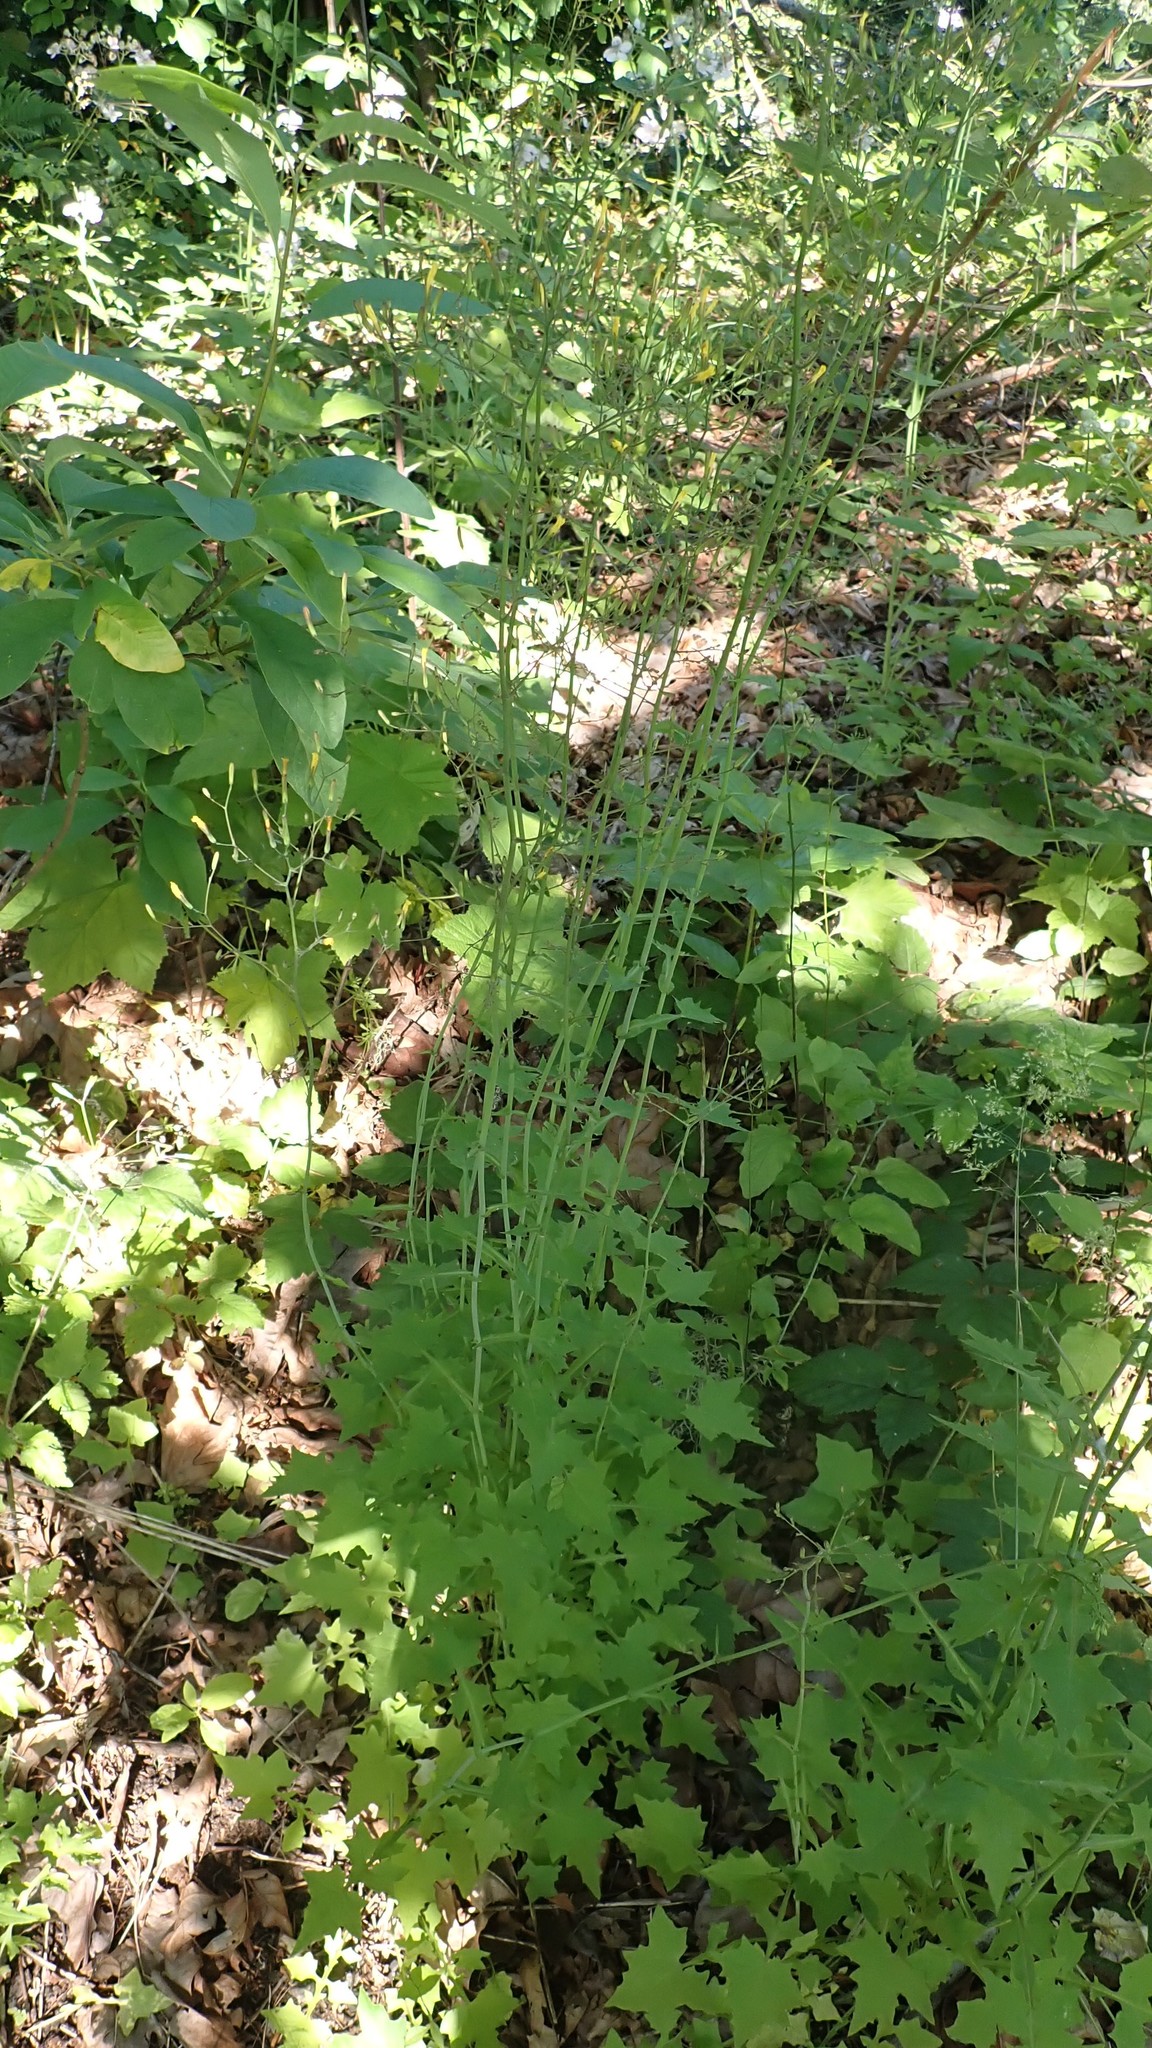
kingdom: Plantae
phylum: Tracheophyta
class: Magnoliopsida
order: Asterales
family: Asteraceae
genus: Mycelis
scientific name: Mycelis muralis
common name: Wall lettuce
